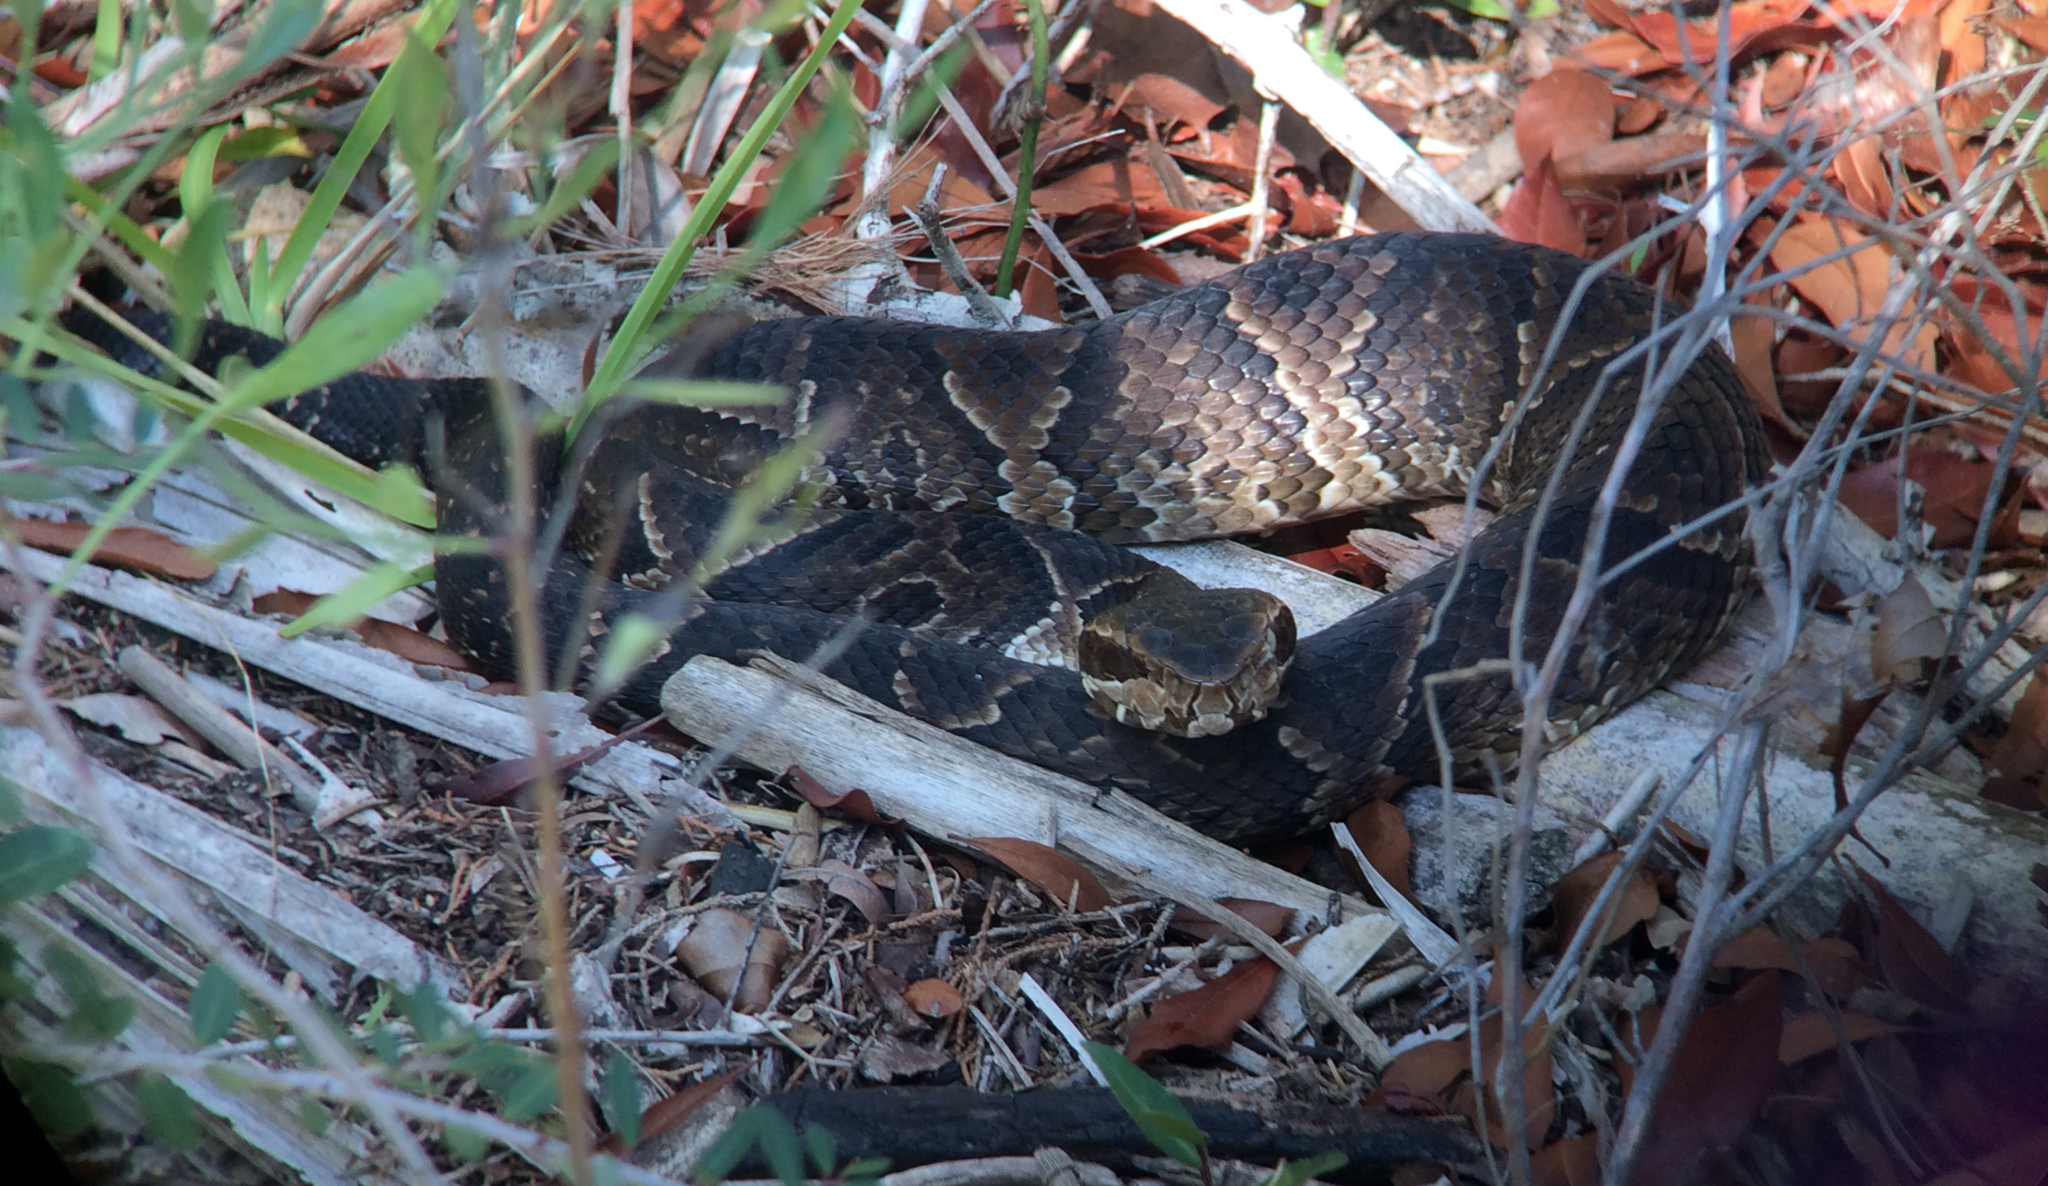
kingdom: Animalia
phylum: Chordata
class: Squamata
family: Viperidae
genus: Agkistrodon
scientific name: Agkistrodon conanti
